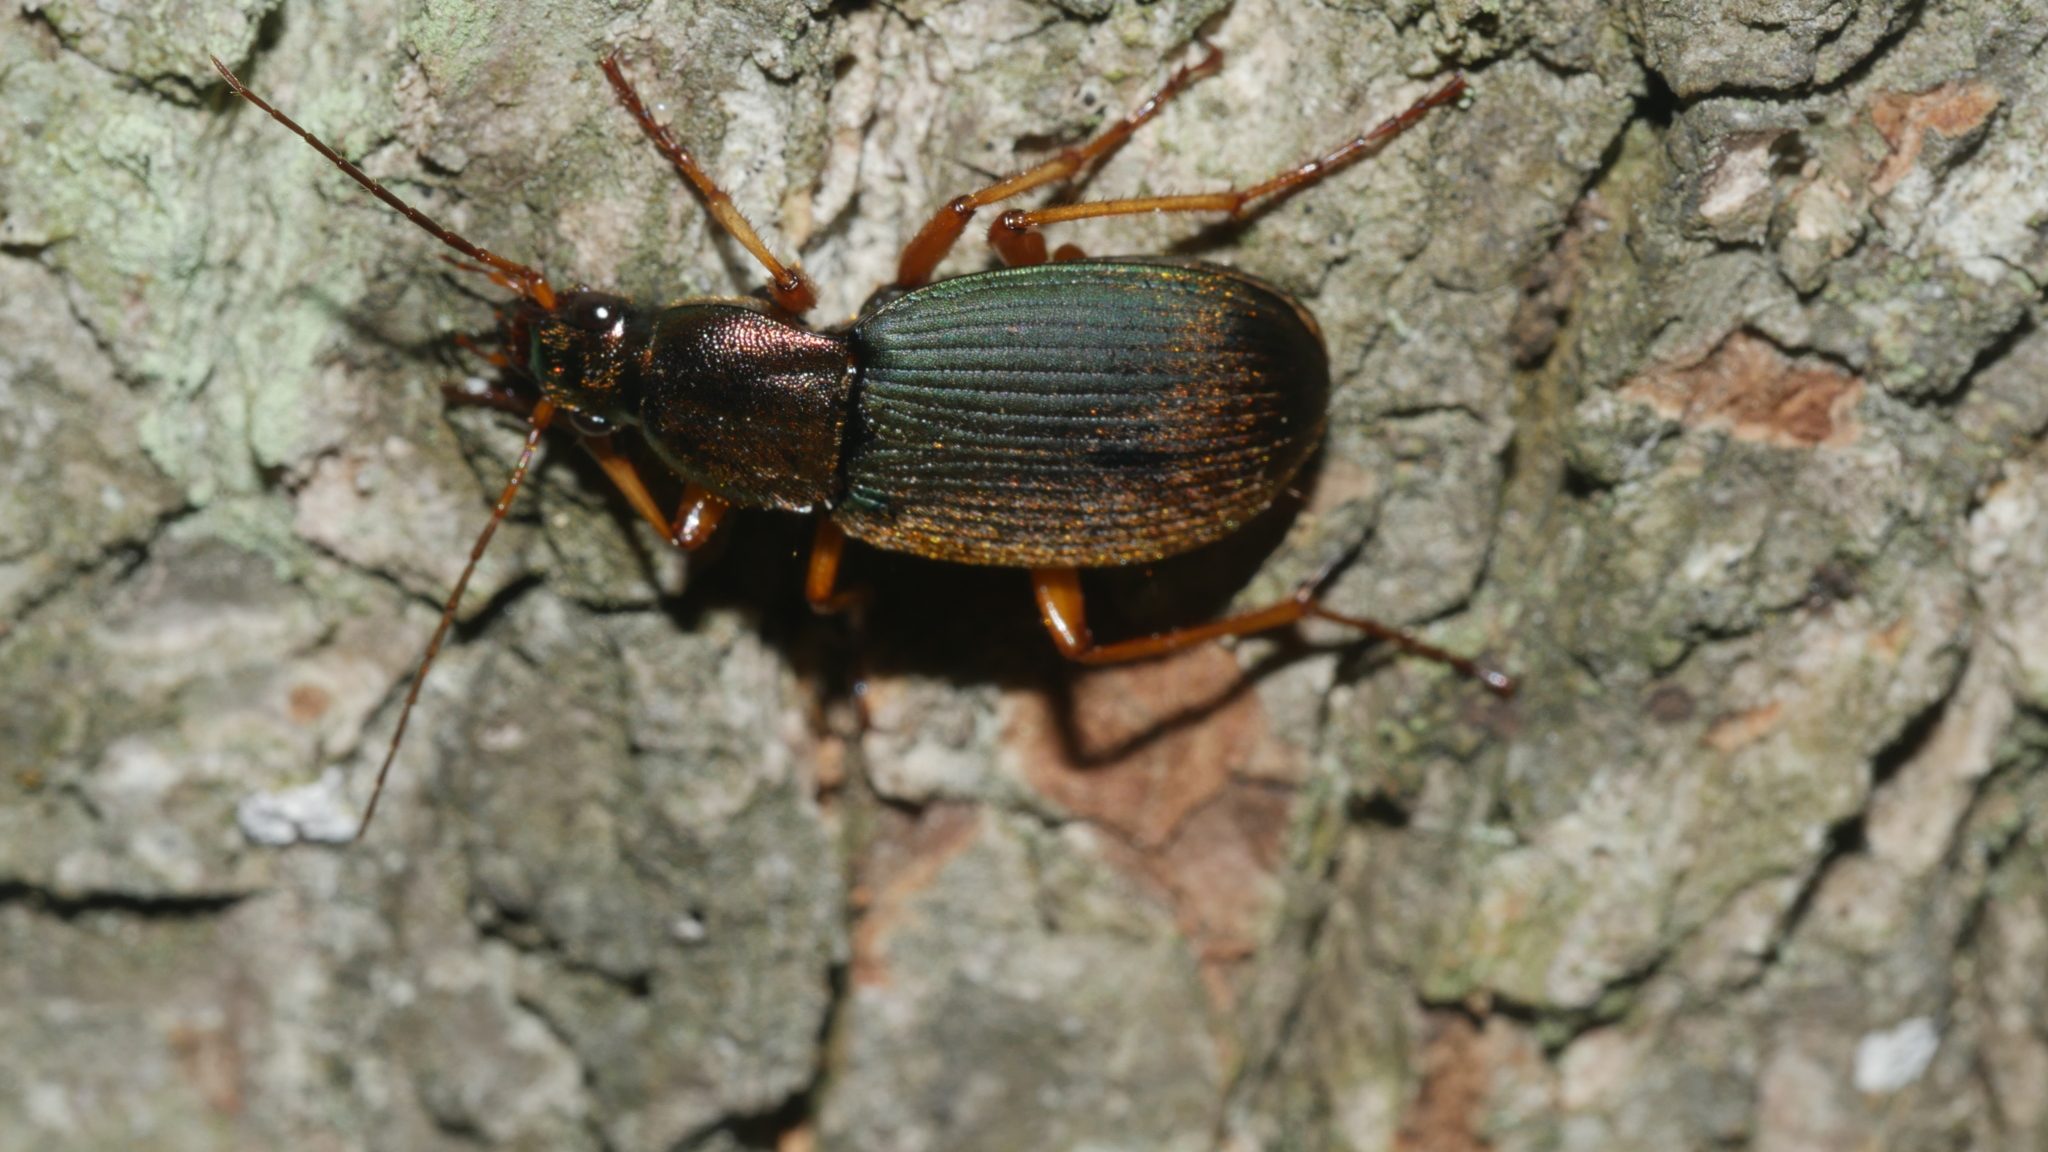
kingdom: Animalia
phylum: Arthropoda
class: Insecta
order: Coleoptera
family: Carabidae
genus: Chlaenius
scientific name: Chlaenius
